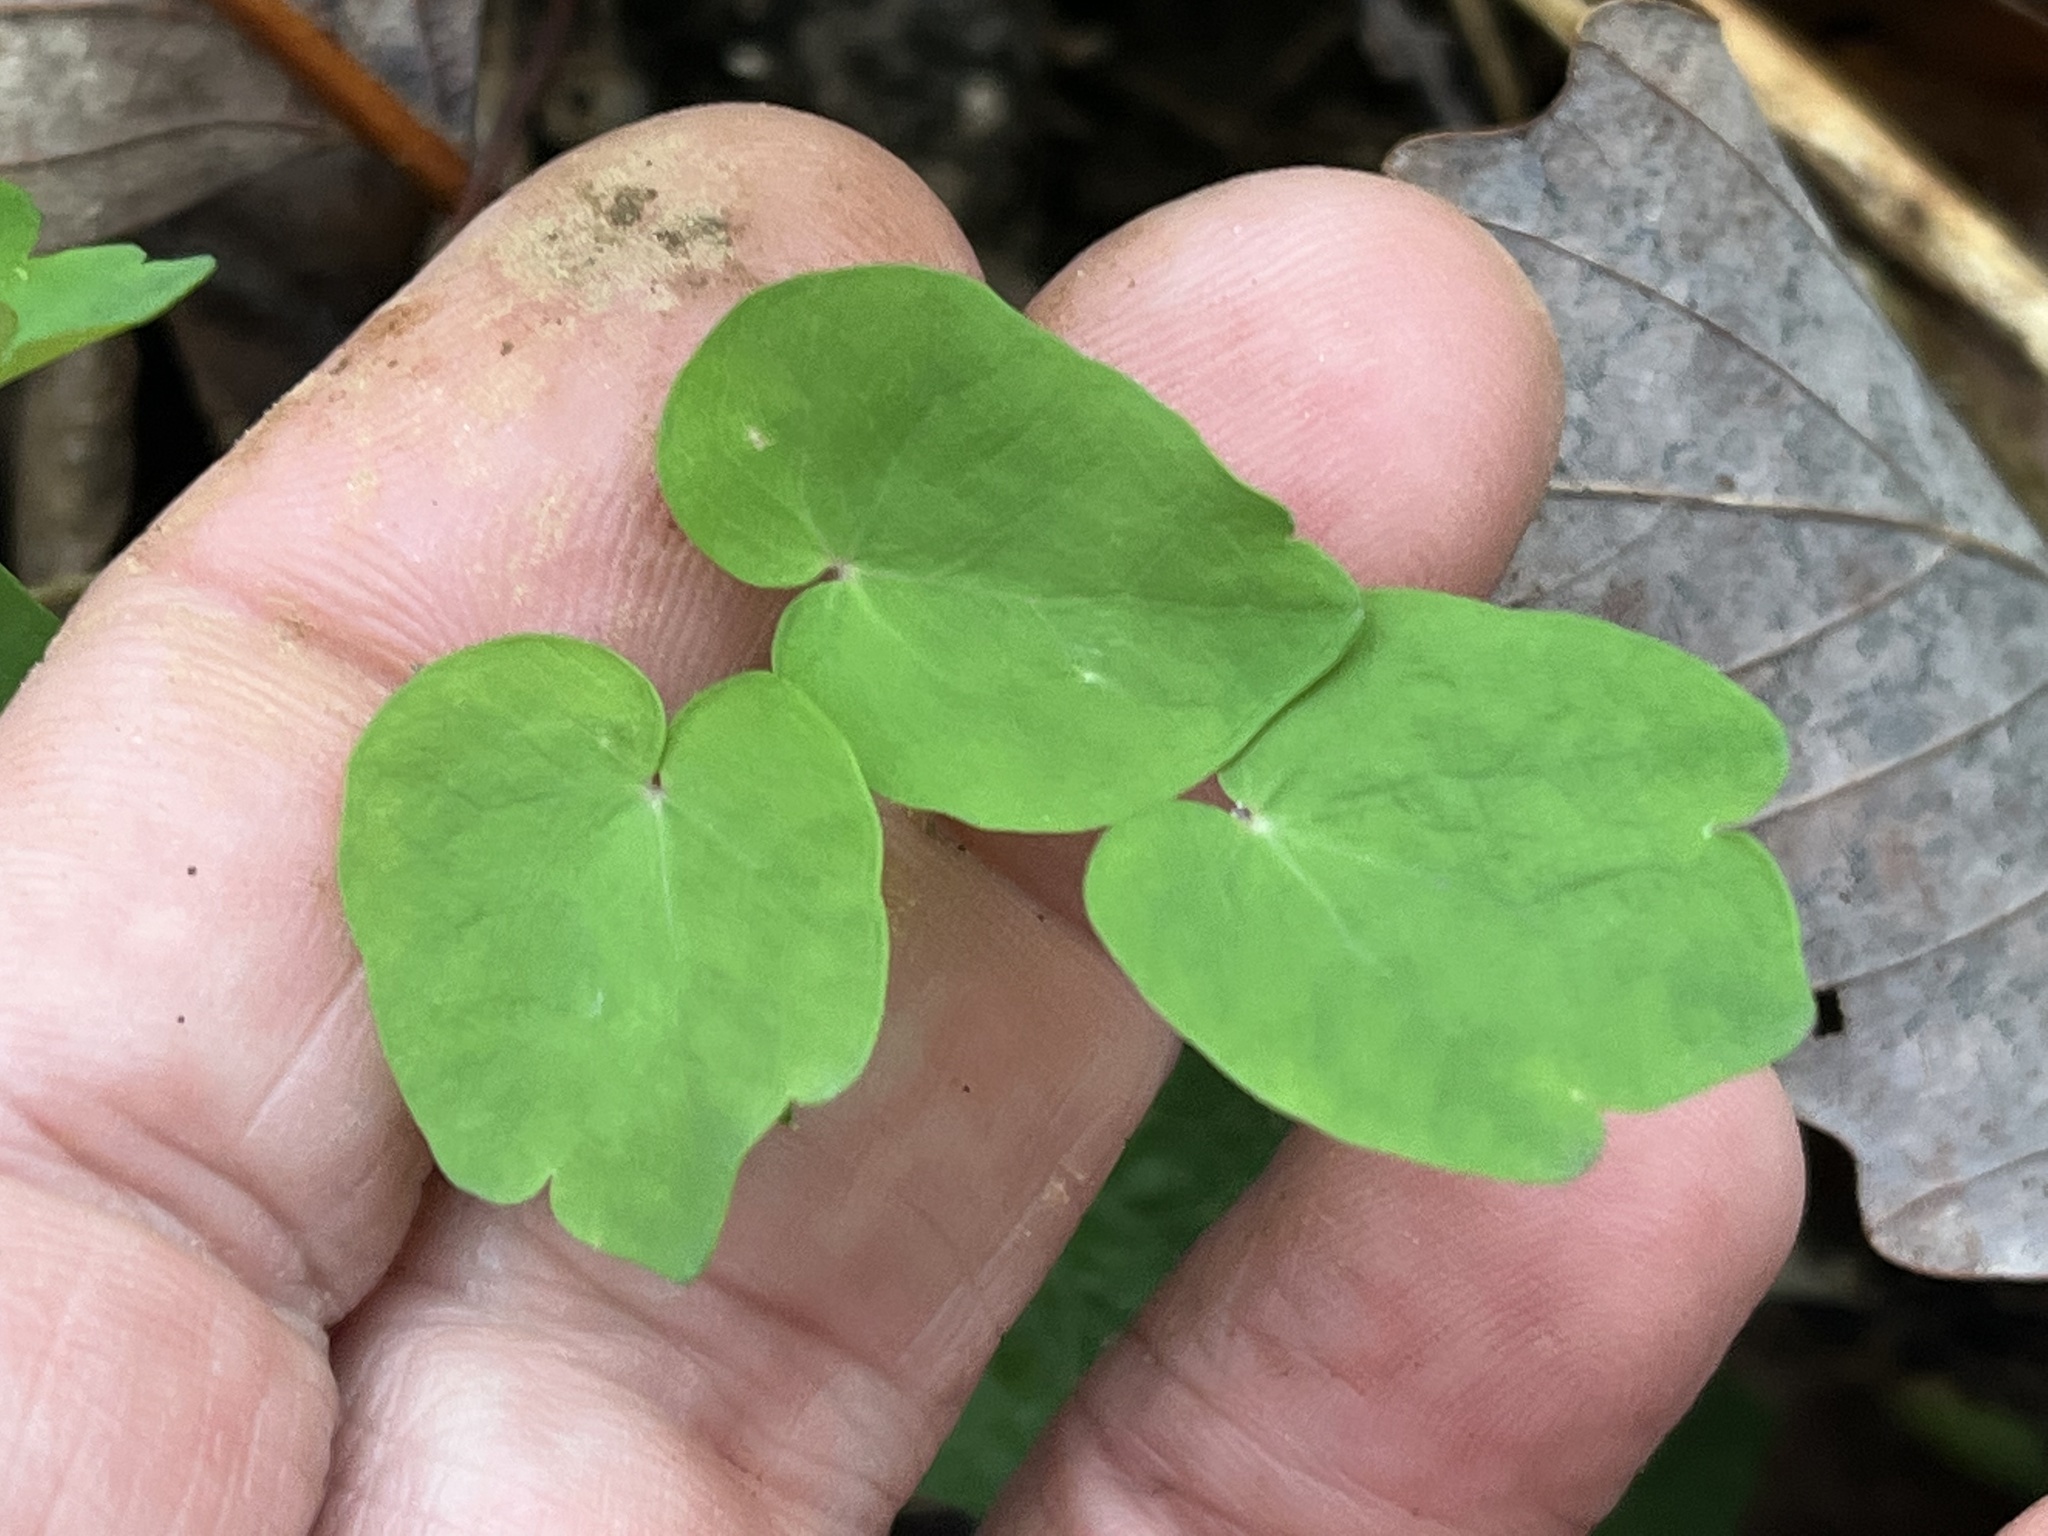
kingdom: Plantae
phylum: Tracheophyta
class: Magnoliopsida
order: Ranunculales
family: Ranunculaceae
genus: Thalictrum
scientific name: Thalictrum thalictroides
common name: Rue-anemone
